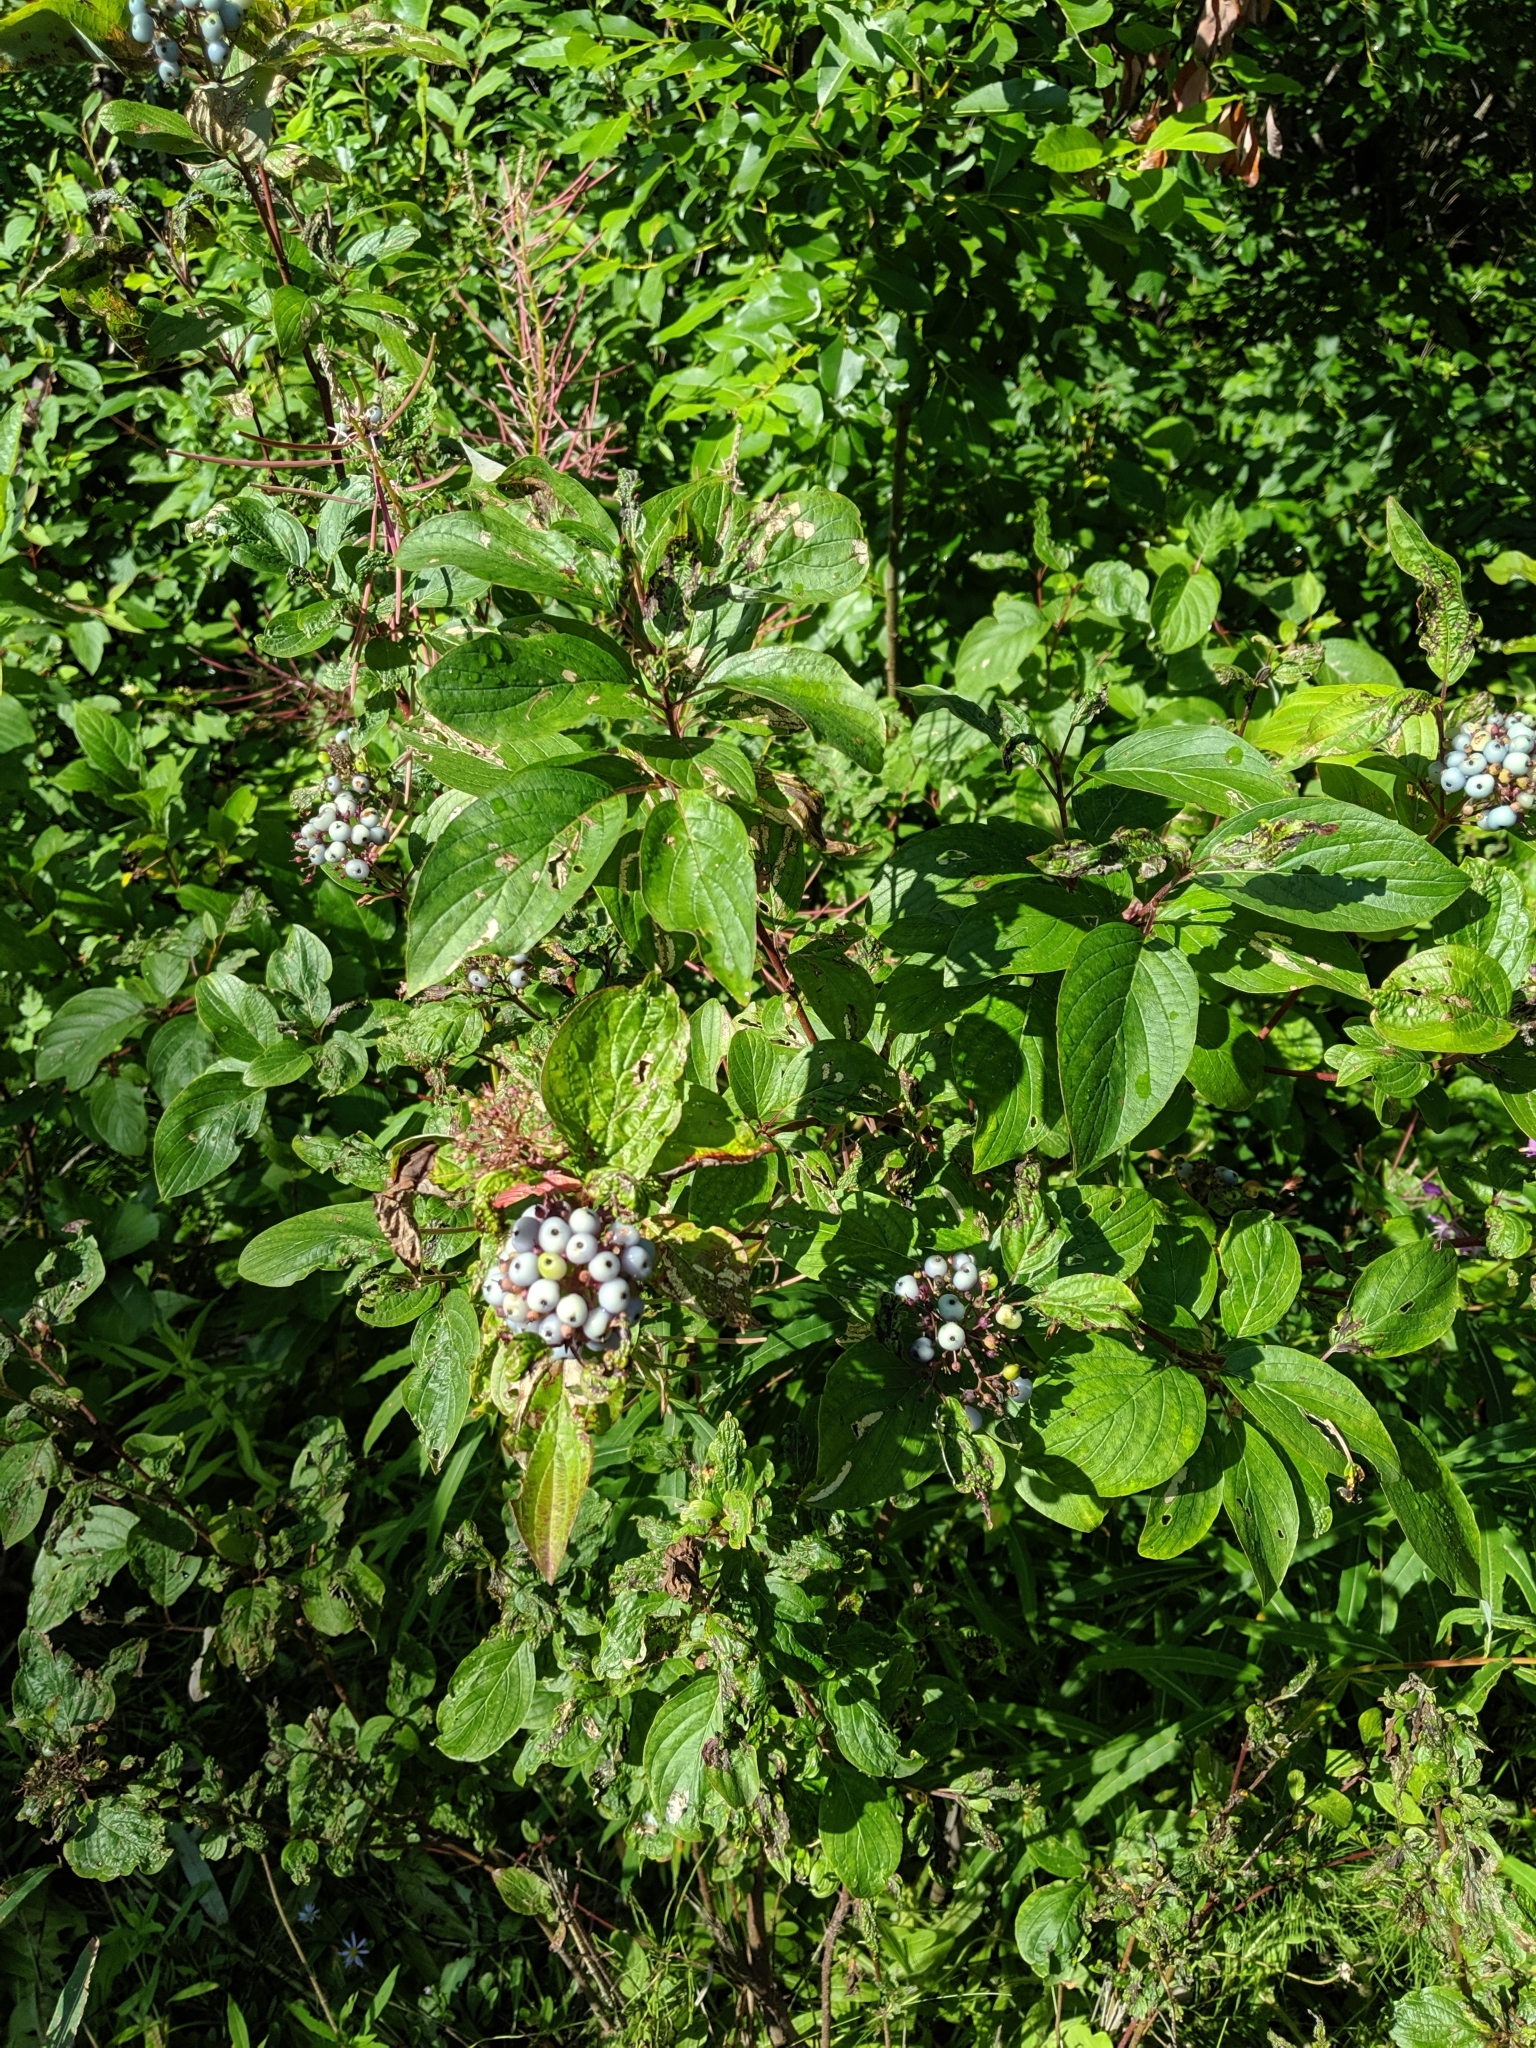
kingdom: Plantae
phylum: Tracheophyta
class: Magnoliopsida
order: Cornales
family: Cornaceae
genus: Cornus
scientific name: Cornus sericea
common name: Red-osier dogwood
